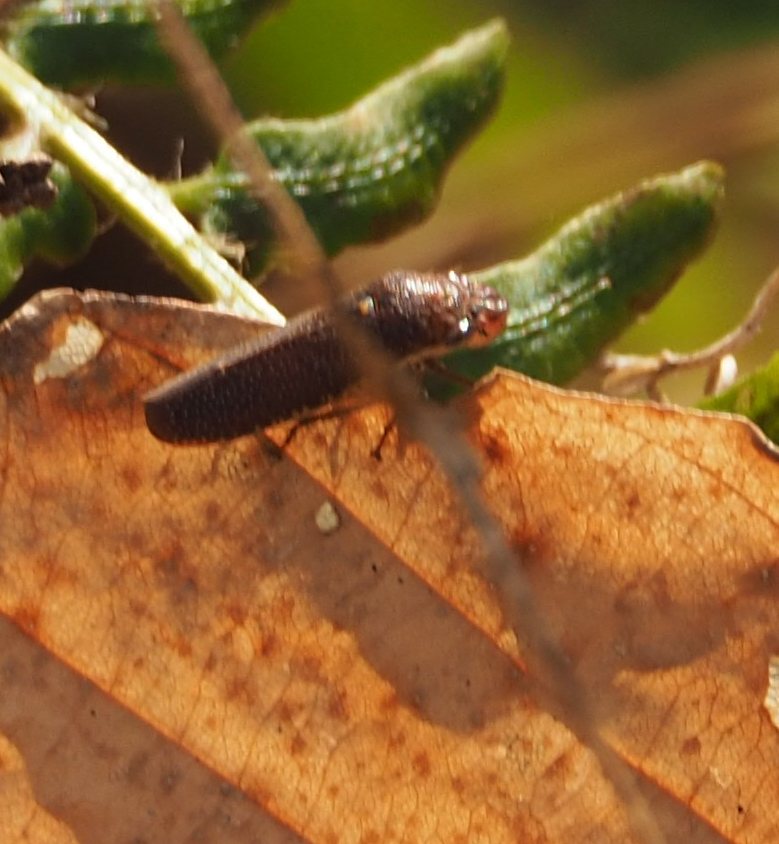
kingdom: Animalia
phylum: Arthropoda
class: Insecta
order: Hemiptera
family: Cicadellidae
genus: Paraulacizes
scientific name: Paraulacizes irrorata
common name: Speckled sharpshooter
